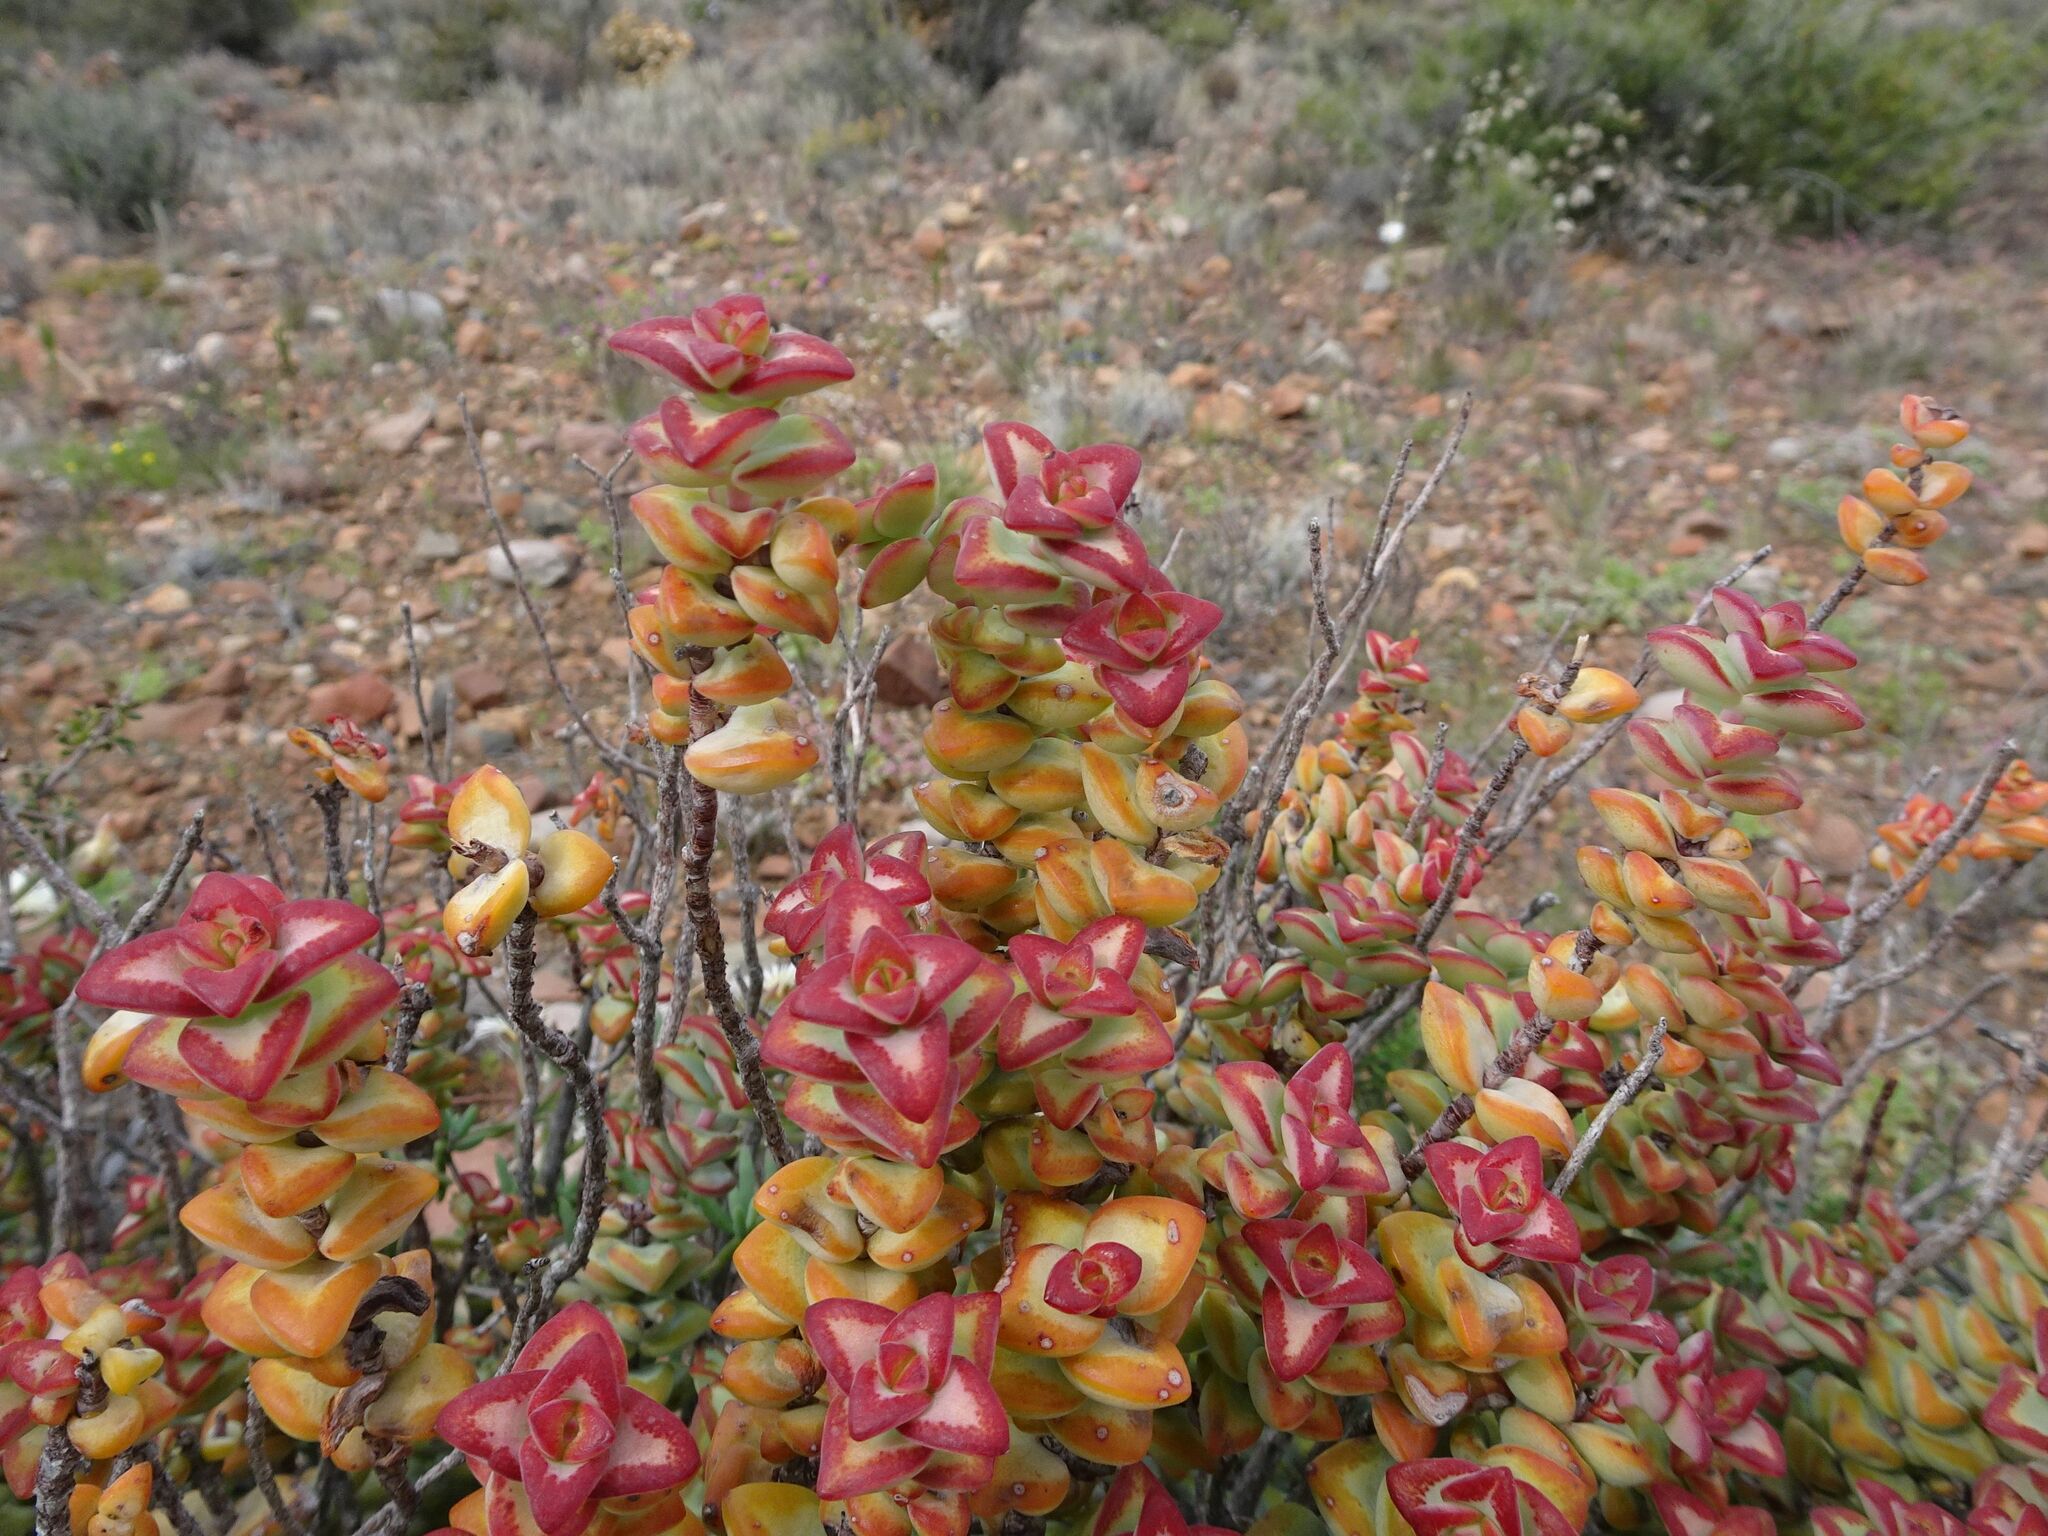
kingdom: Plantae
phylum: Tracheophyta
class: Magnoliopsida
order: Saxifragales
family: Crassulaceae
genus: Crassula
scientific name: Crassula rupestris
